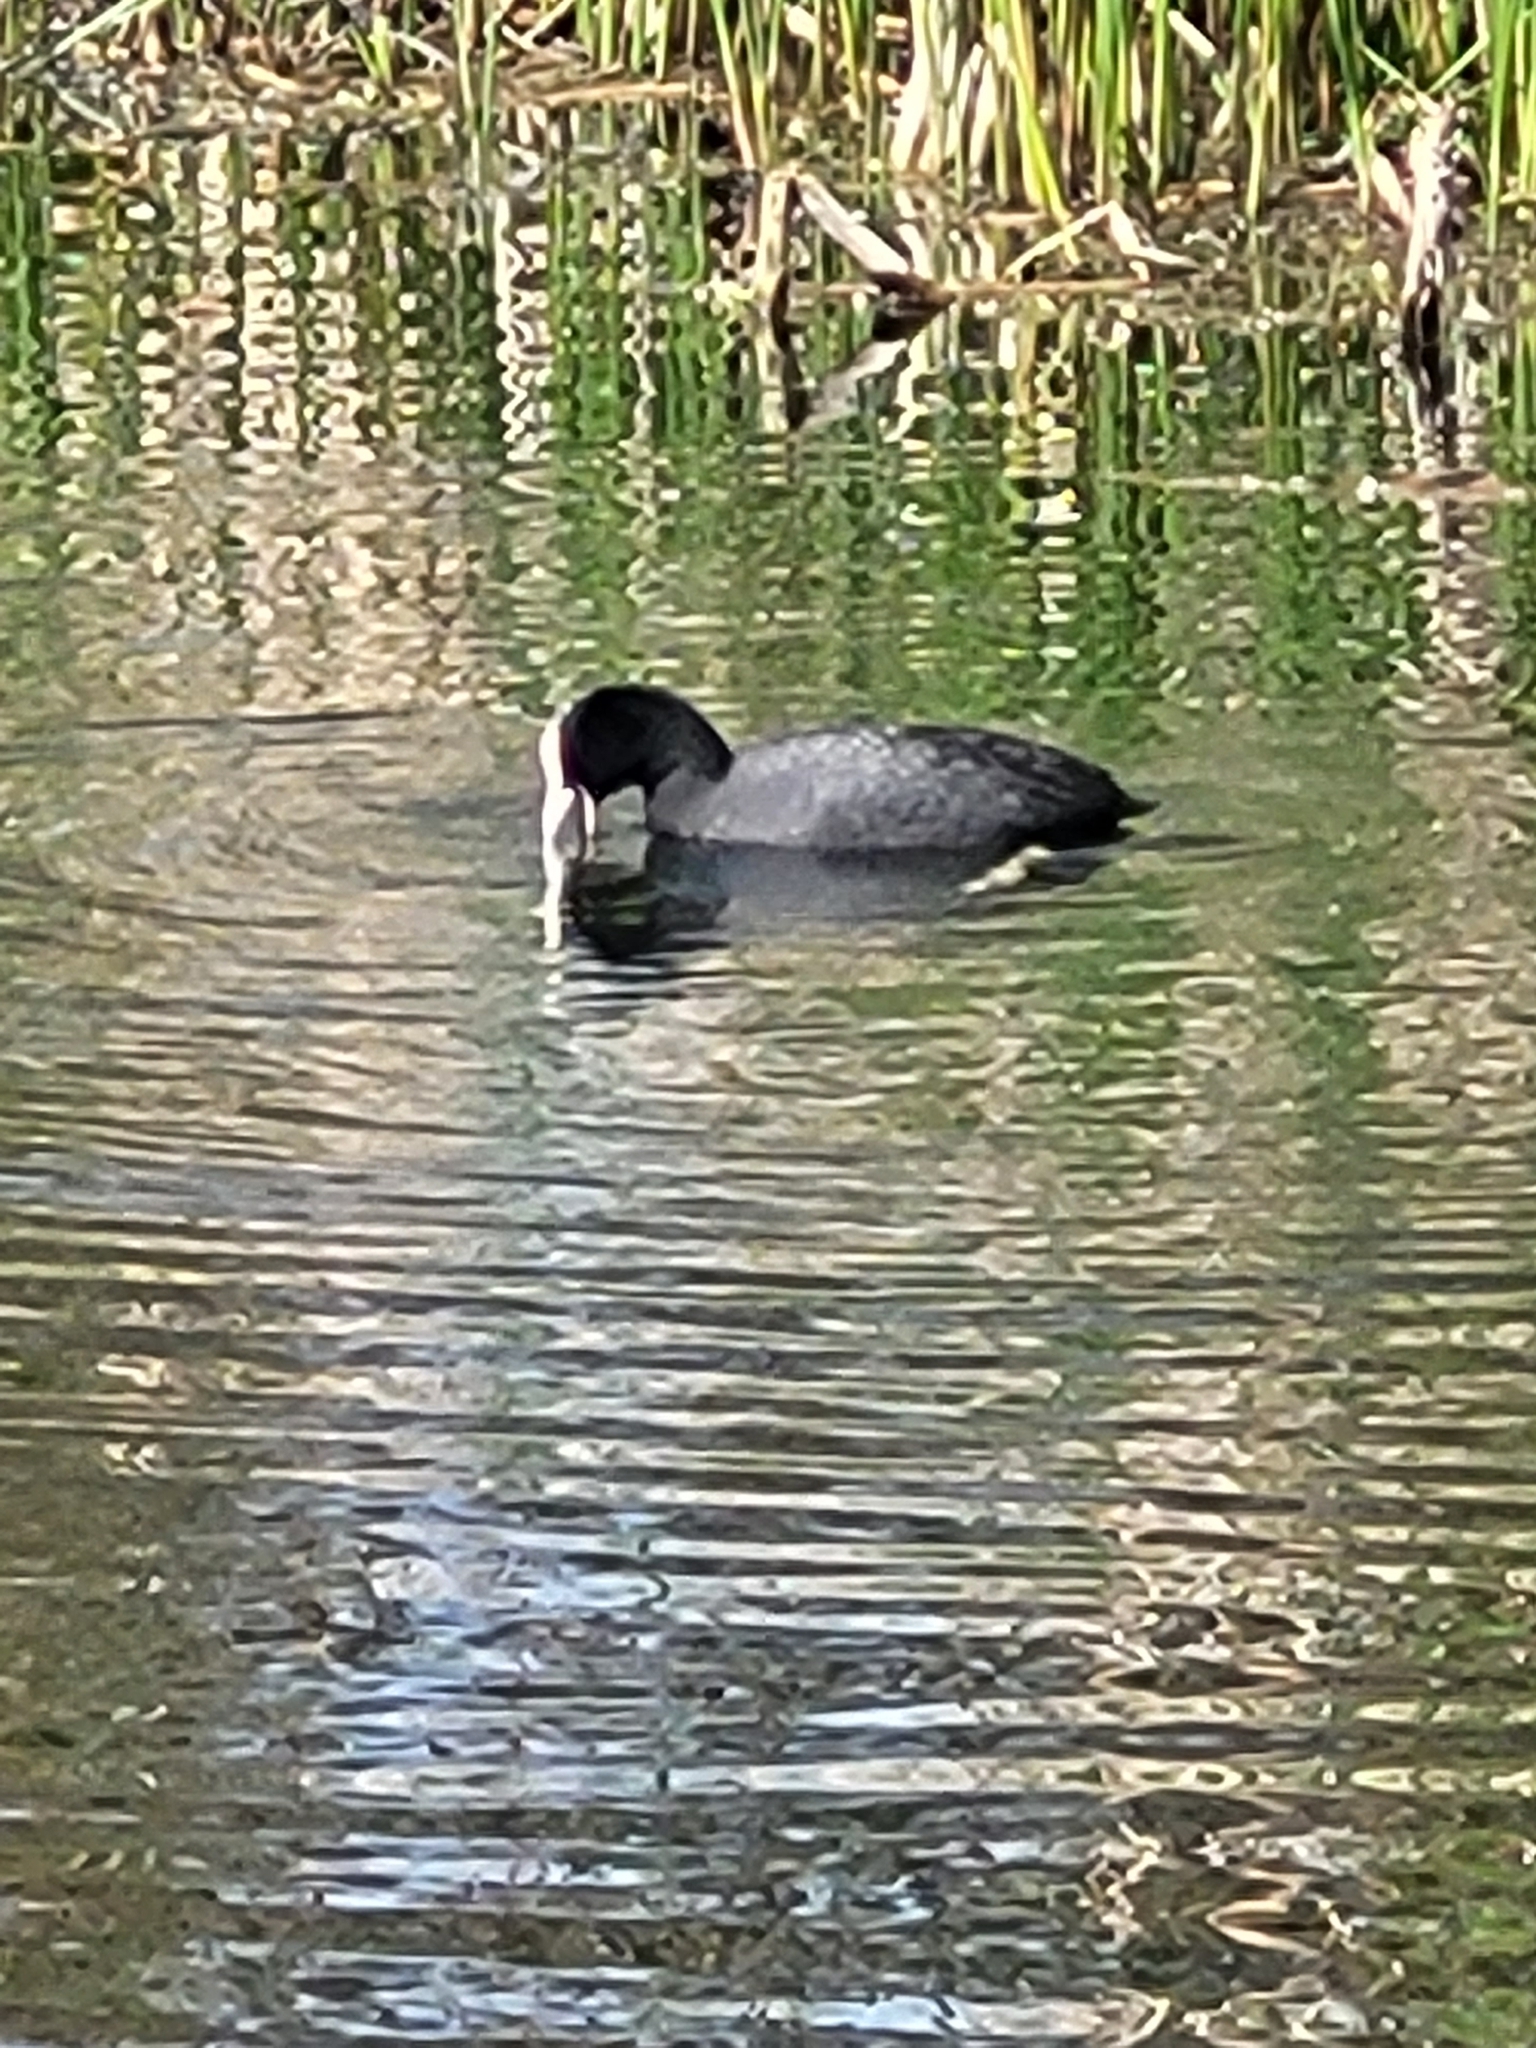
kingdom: Animalia
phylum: Chordata
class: Aves
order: Gruiformes
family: Rallidae
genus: Fulica
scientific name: Fulica atra
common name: Eurasian coot
